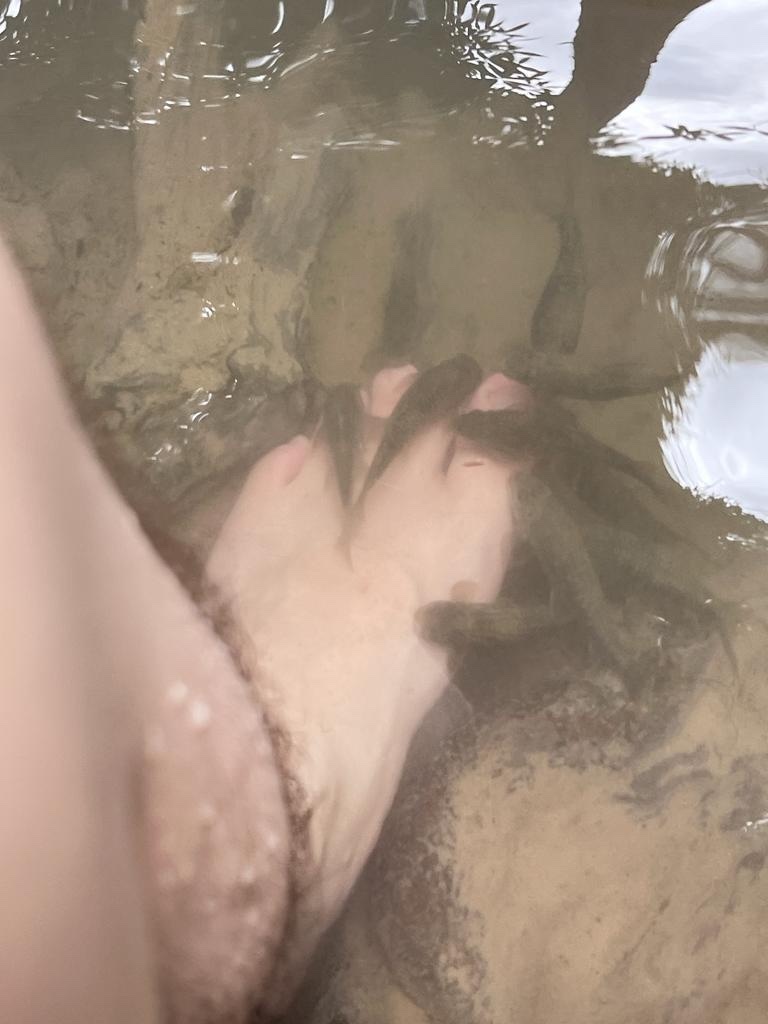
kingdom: Animalia
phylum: Chordata
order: Cypriniformes
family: Cyprinidae
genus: Garra
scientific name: Garra rufa
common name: Red garra
